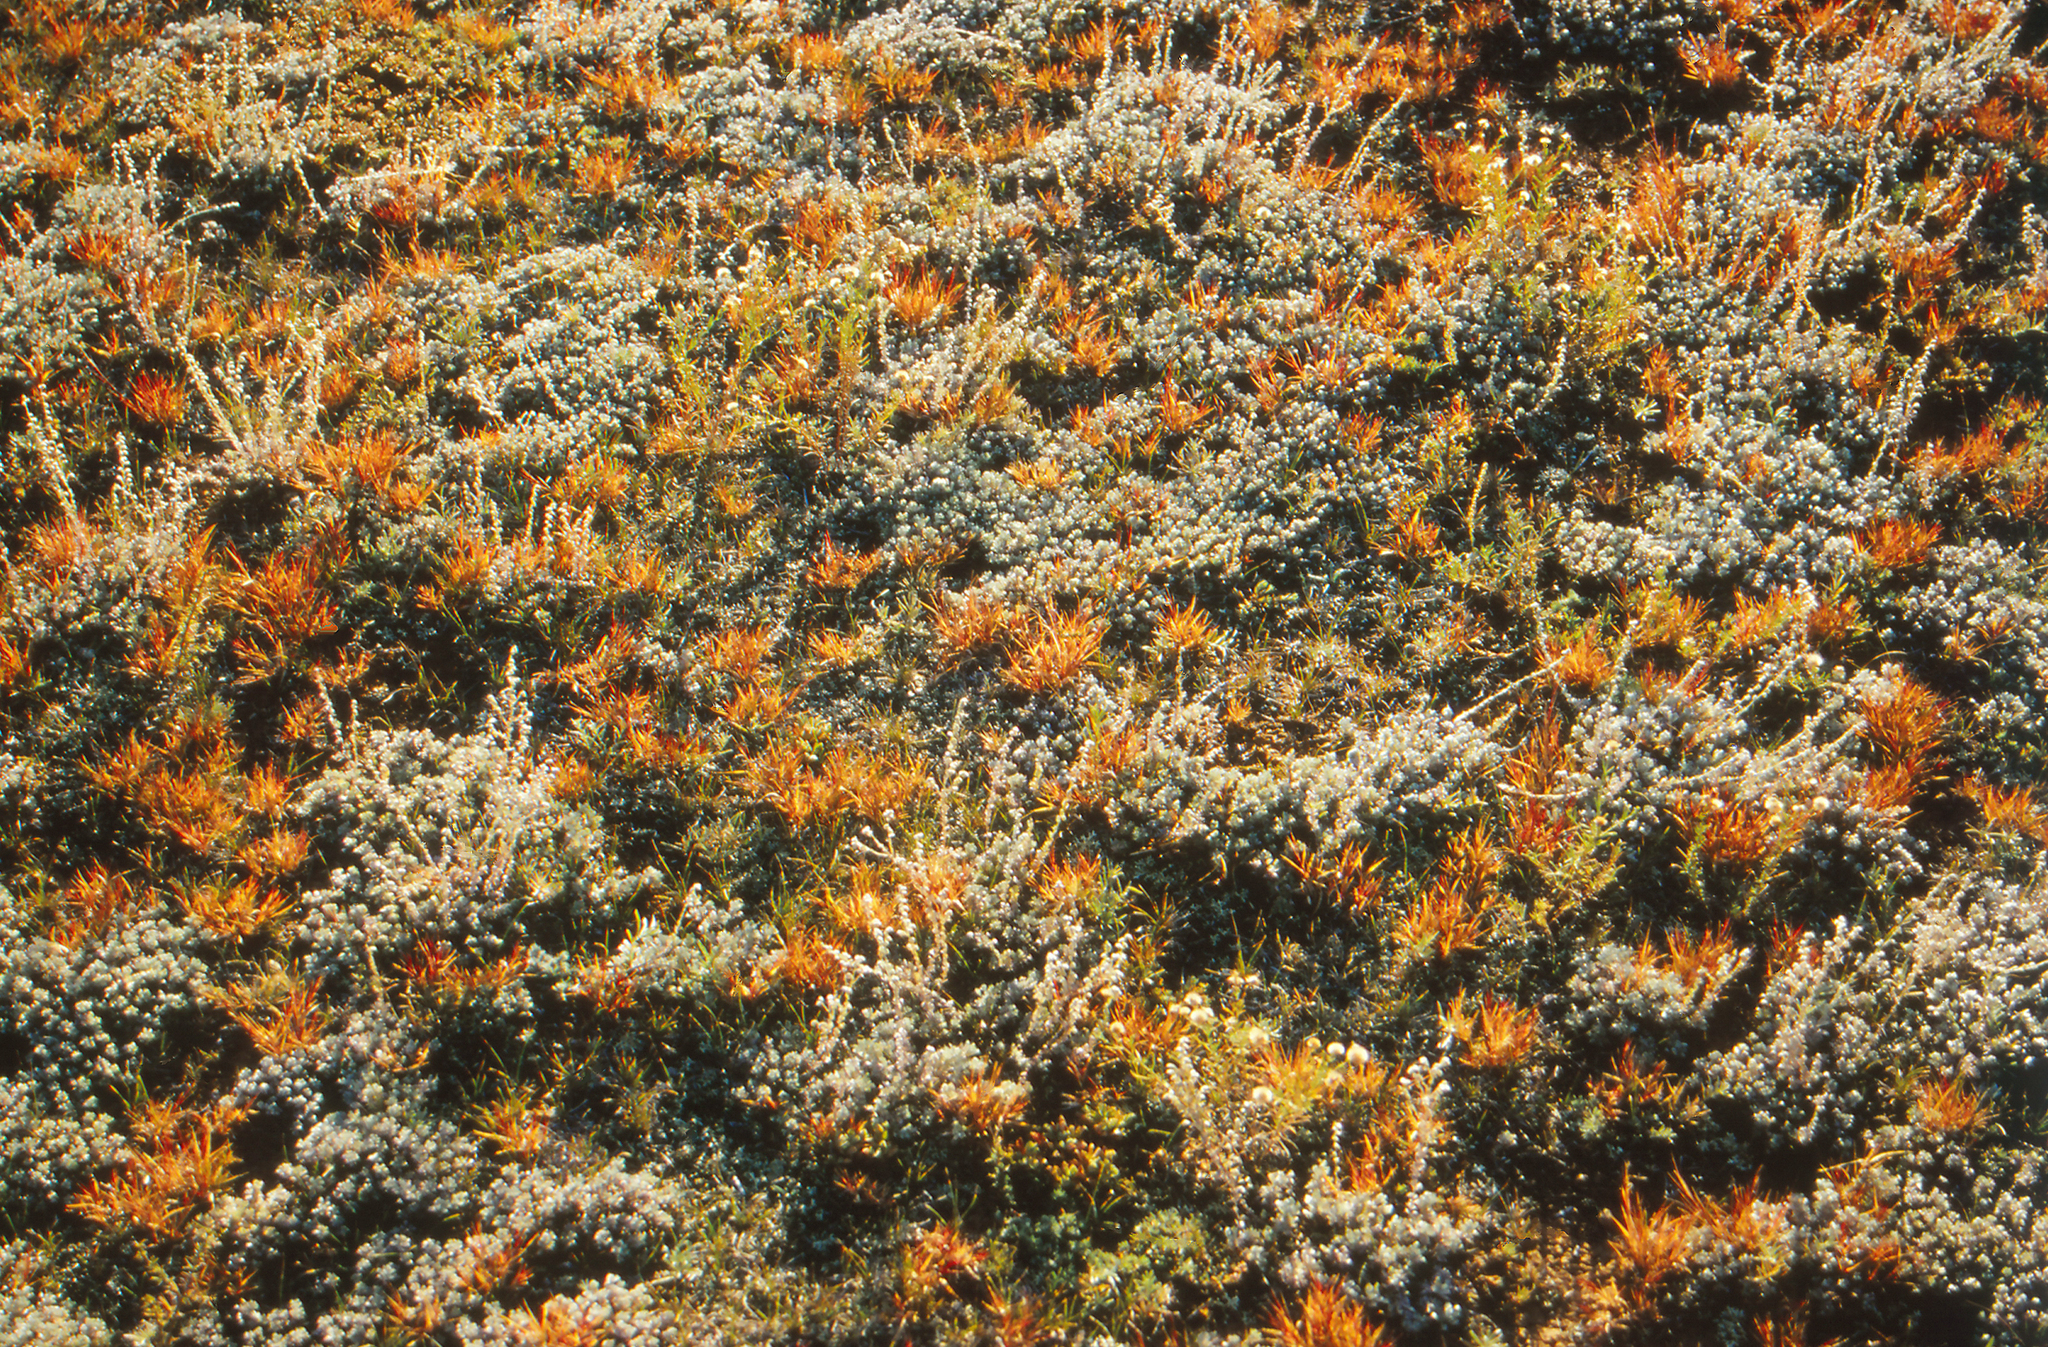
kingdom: Plantae
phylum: Tracheophyta
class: Magnoliopsida
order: Asterales
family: Asteraceae
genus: Artemisia
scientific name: Artemisia frigida
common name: Prairie sagewort
